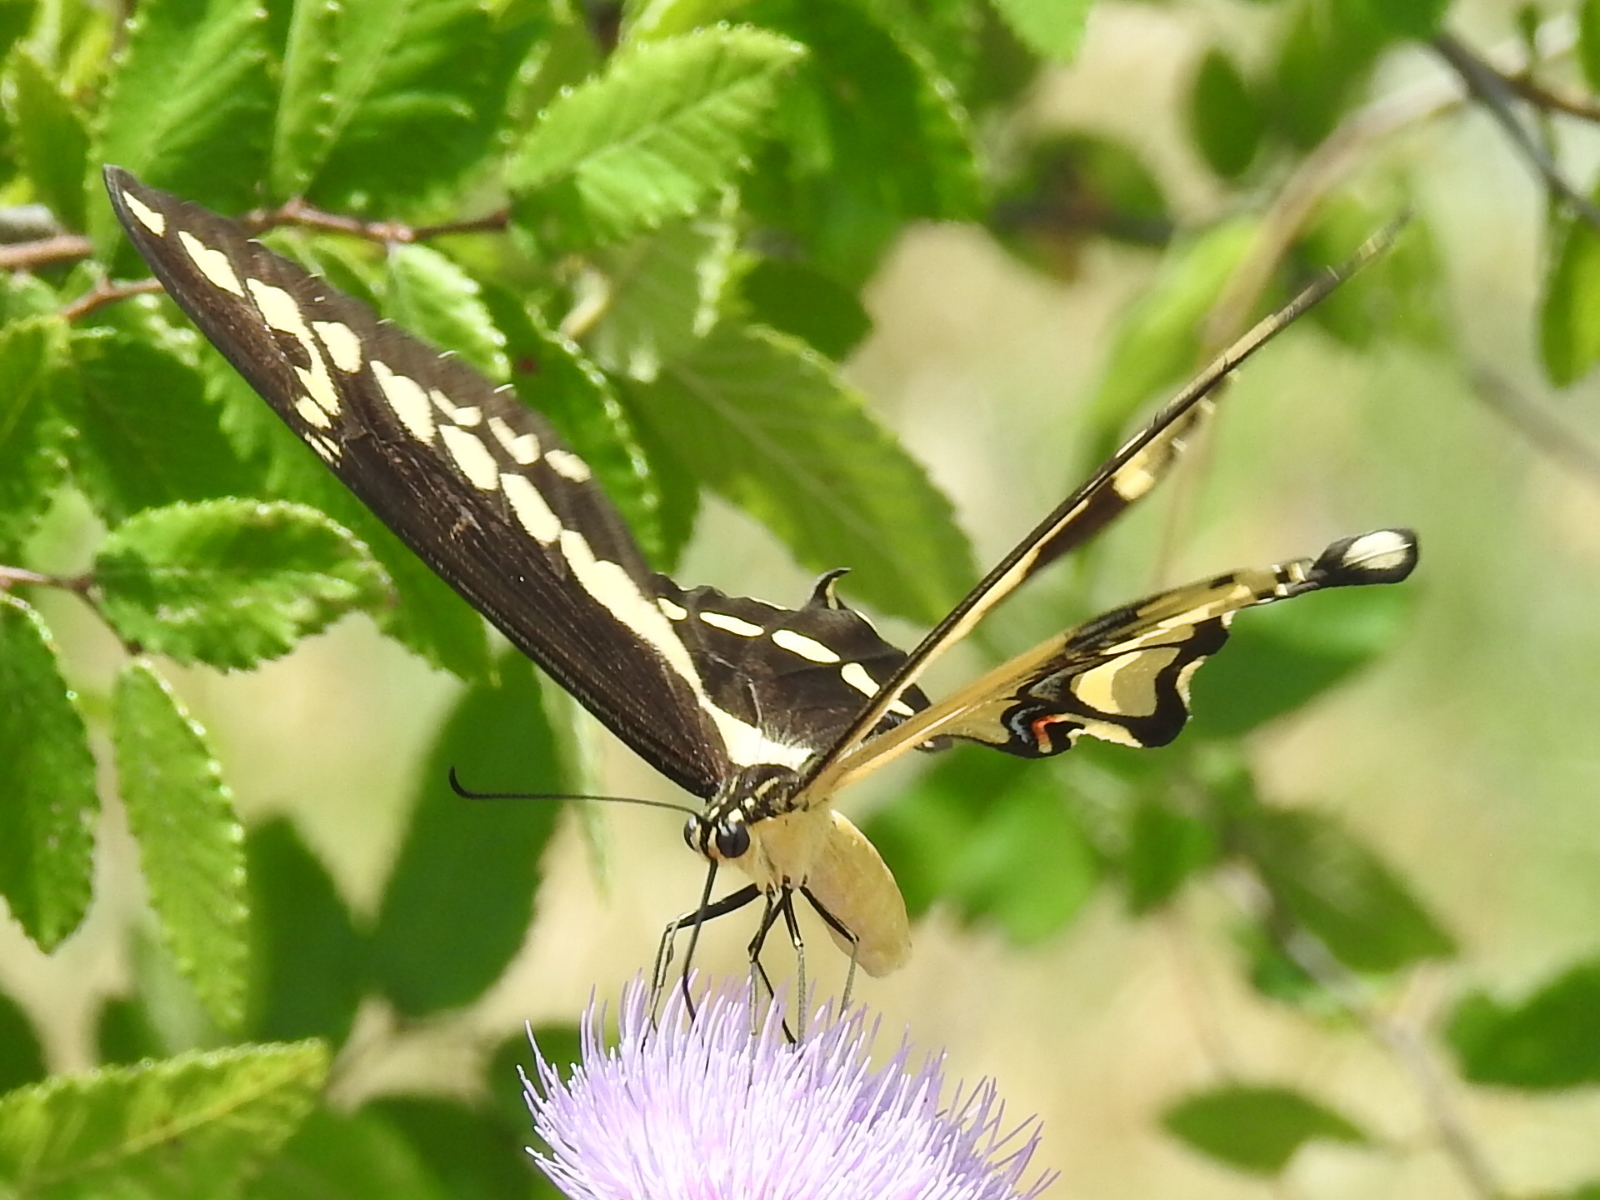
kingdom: Animalia
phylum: Arthropoda
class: Insecta
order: Lepidoptera
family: Papilionidae
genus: Papilio
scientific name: Papilio cresphontes
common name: Giant swallowtail
